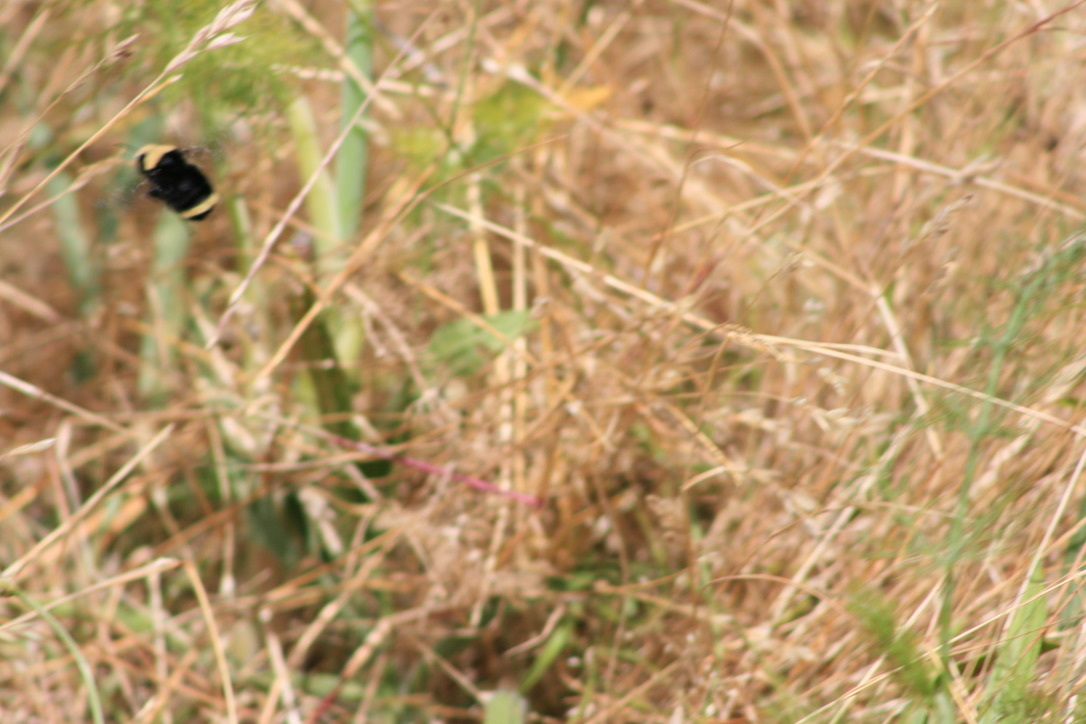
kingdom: Animalia
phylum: Arthropoda
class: Insecta
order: Hymenoptera
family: Apidae
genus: Bombus
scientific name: Bombus vosnesenskii
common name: Vosnesensky bumble bee
